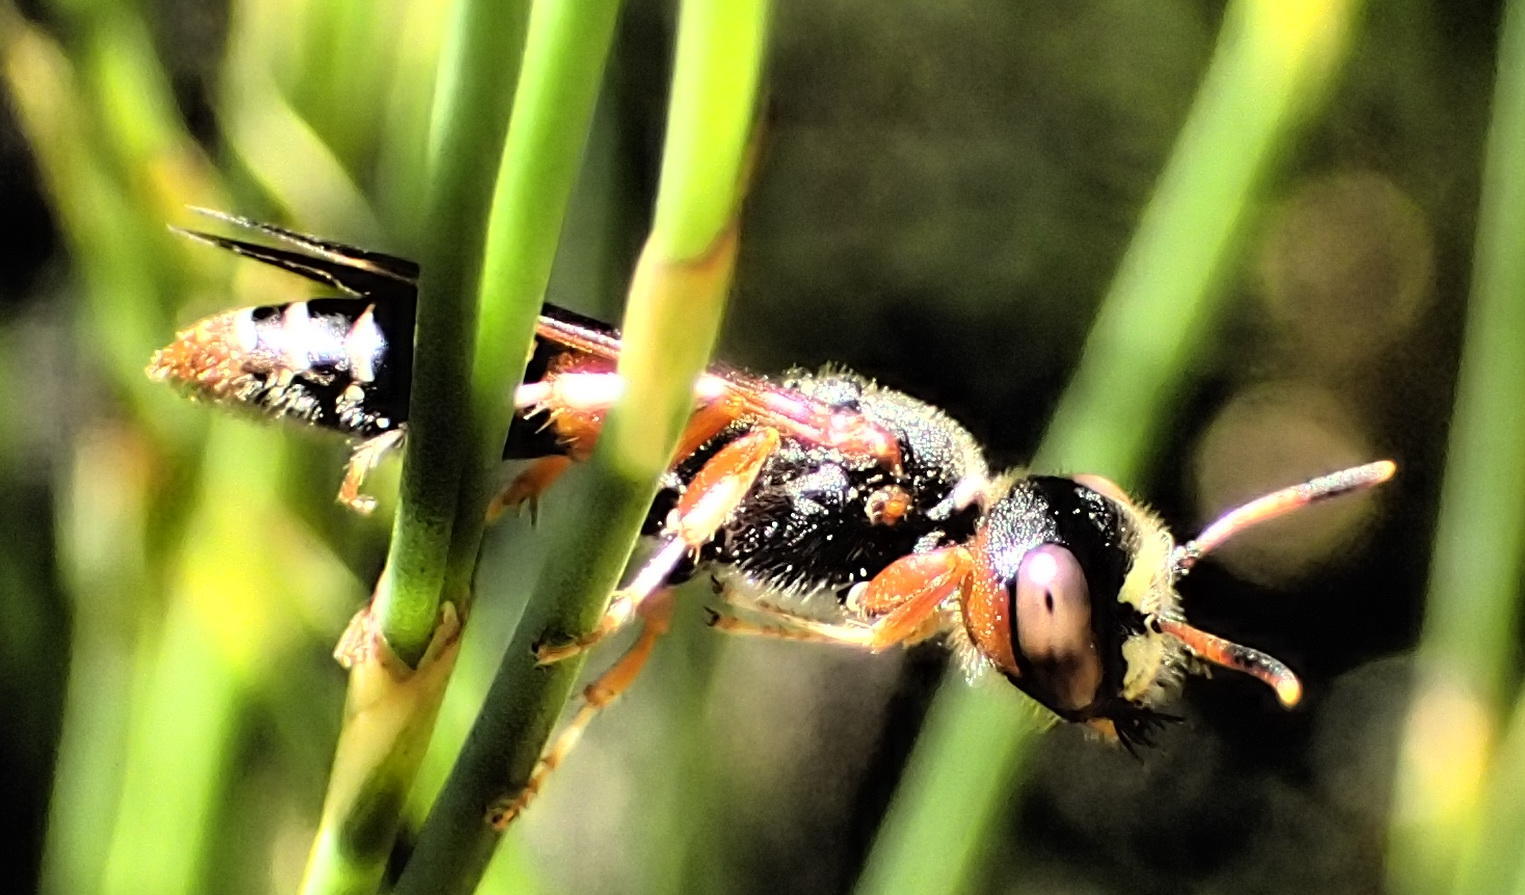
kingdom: Animalia
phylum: Arthropoda
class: Insecta
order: Hymenoptera
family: Crabronidae
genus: Philanthus
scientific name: Philanthus histrio
